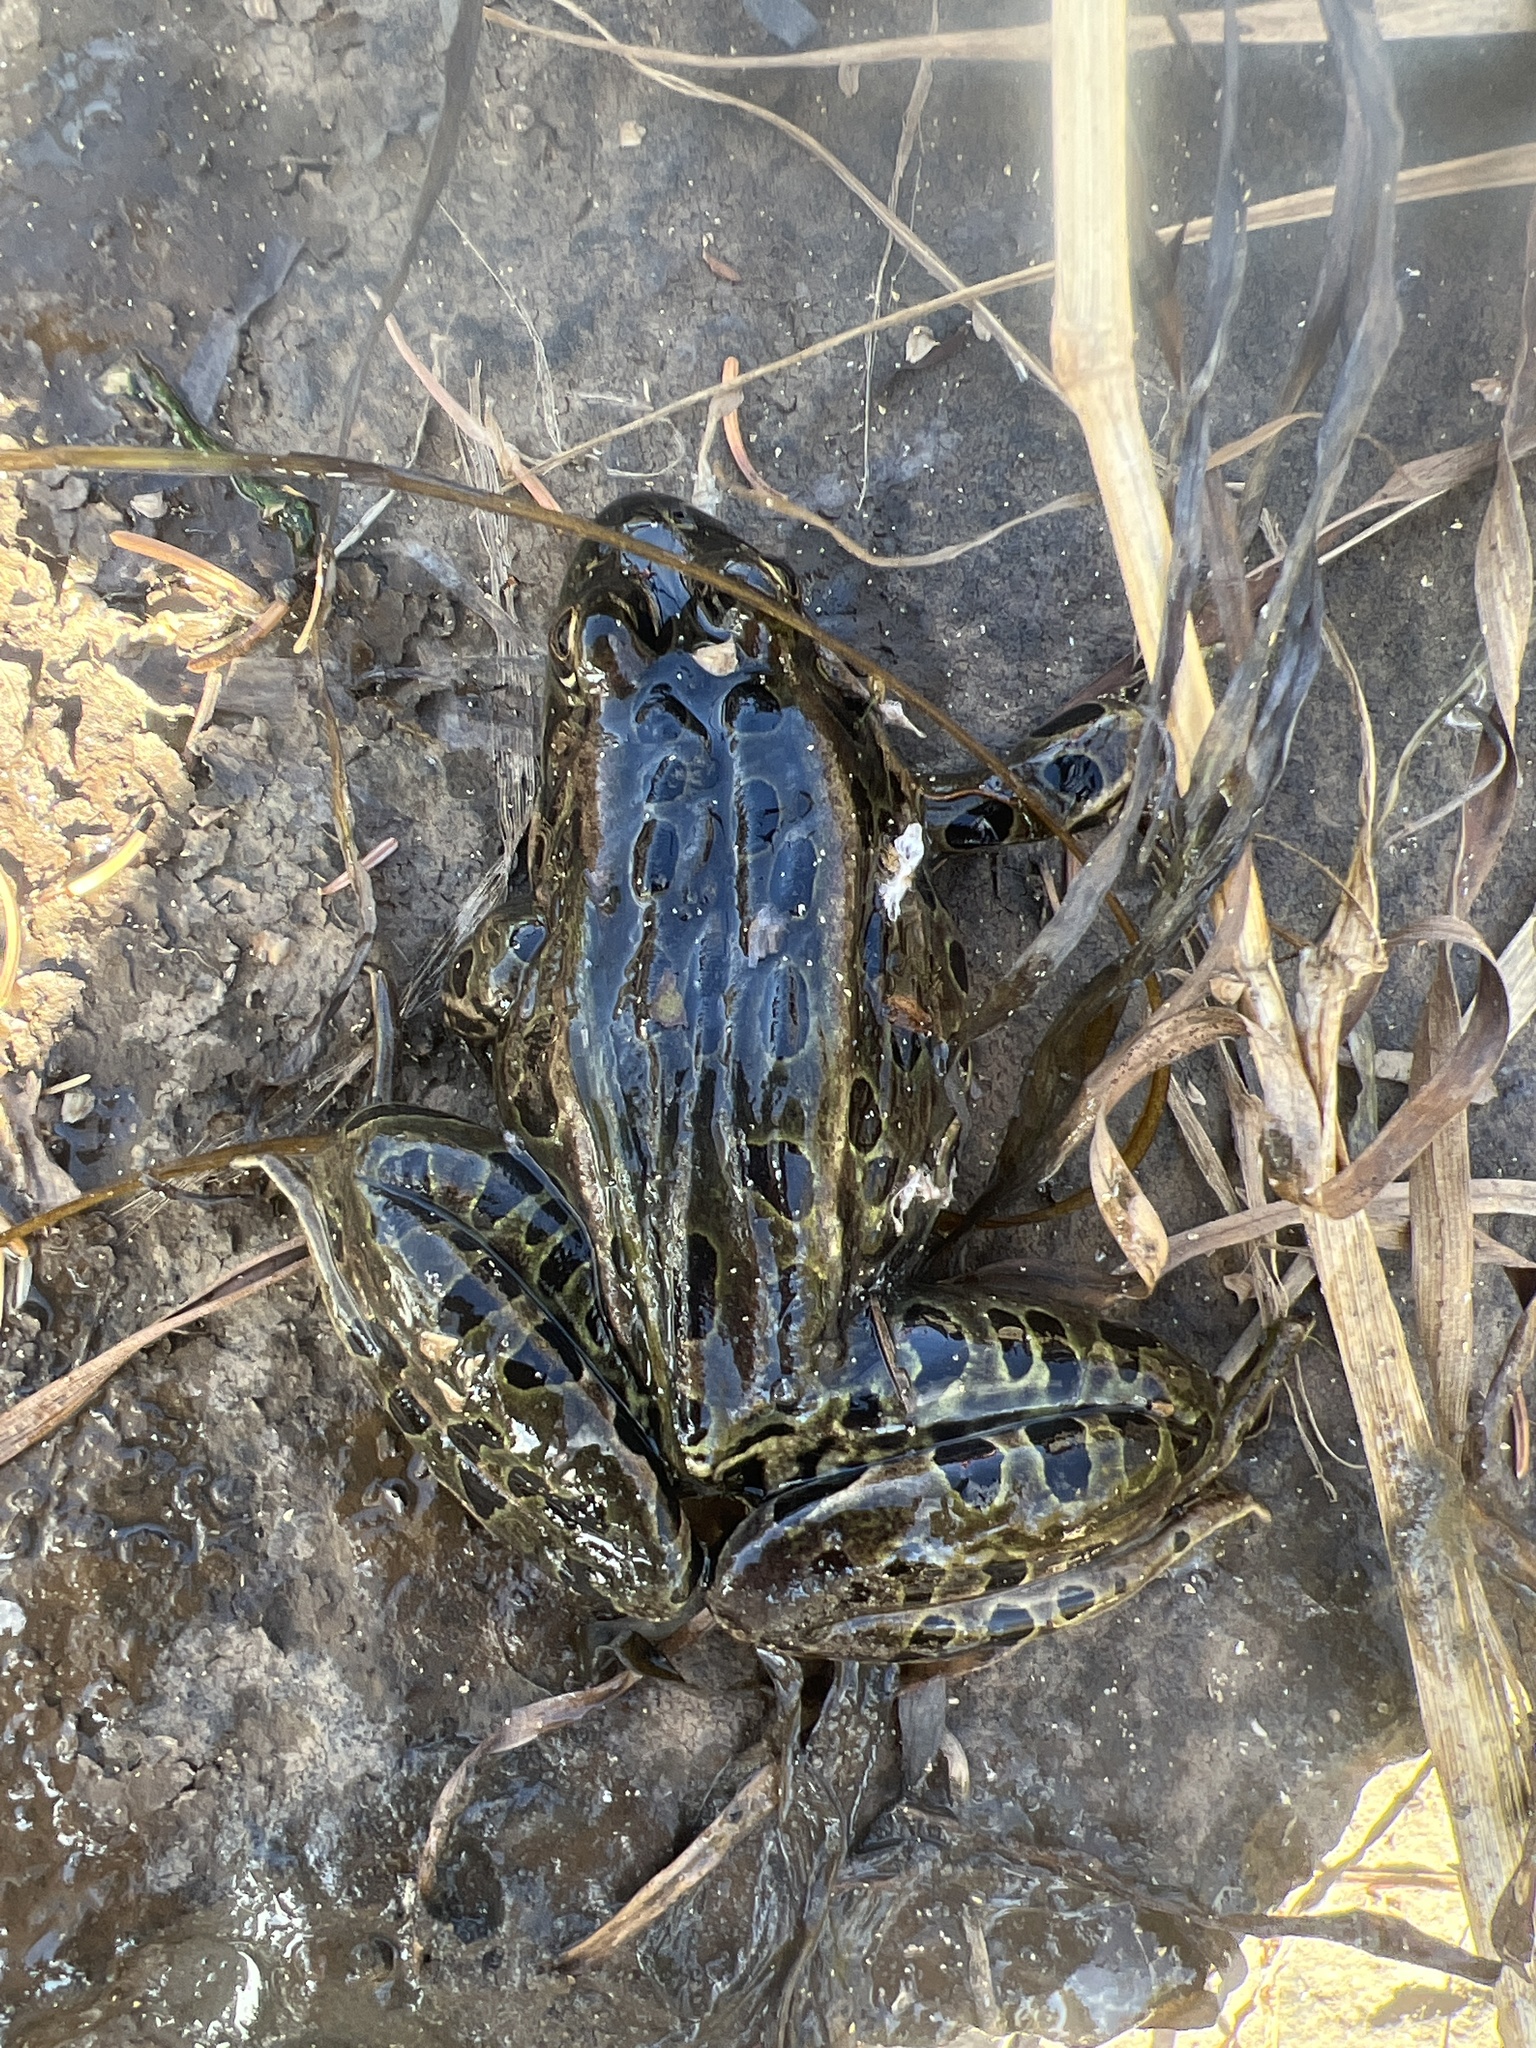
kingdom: Animalia
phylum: Chordata
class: Amphibia
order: Anura
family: Ranidae
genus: Lithobates
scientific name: Lithobates pipiens
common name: Northern leopard frog
